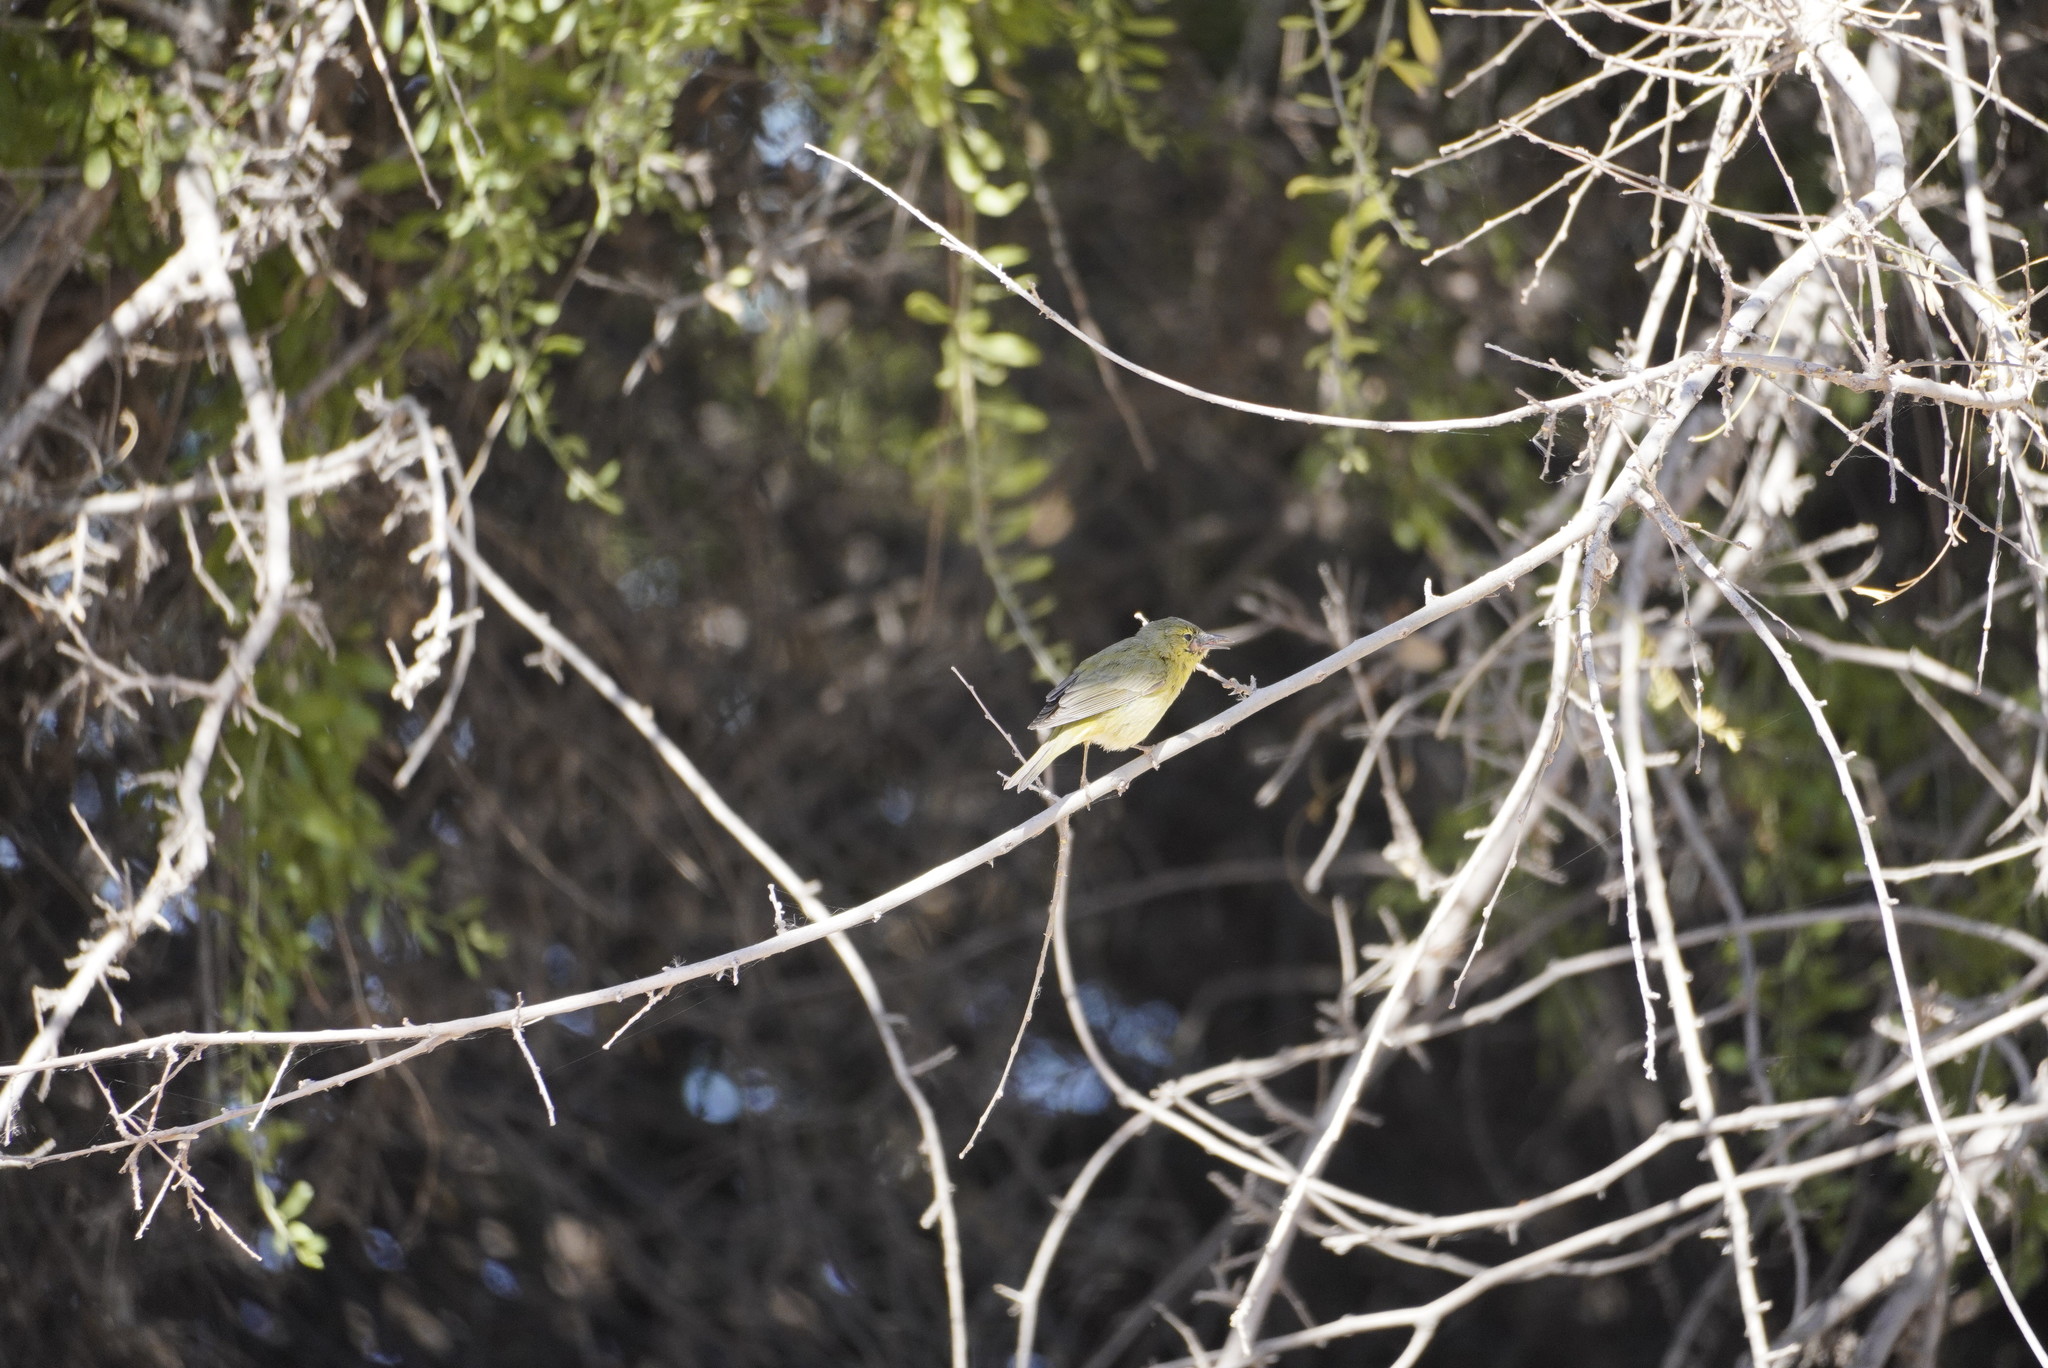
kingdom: Animalia
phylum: Chordata
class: Aves
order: Passeriformes
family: Parulidae
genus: Leiothlypis
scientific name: Leiothlypis celata
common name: Orange-crowned warbler
